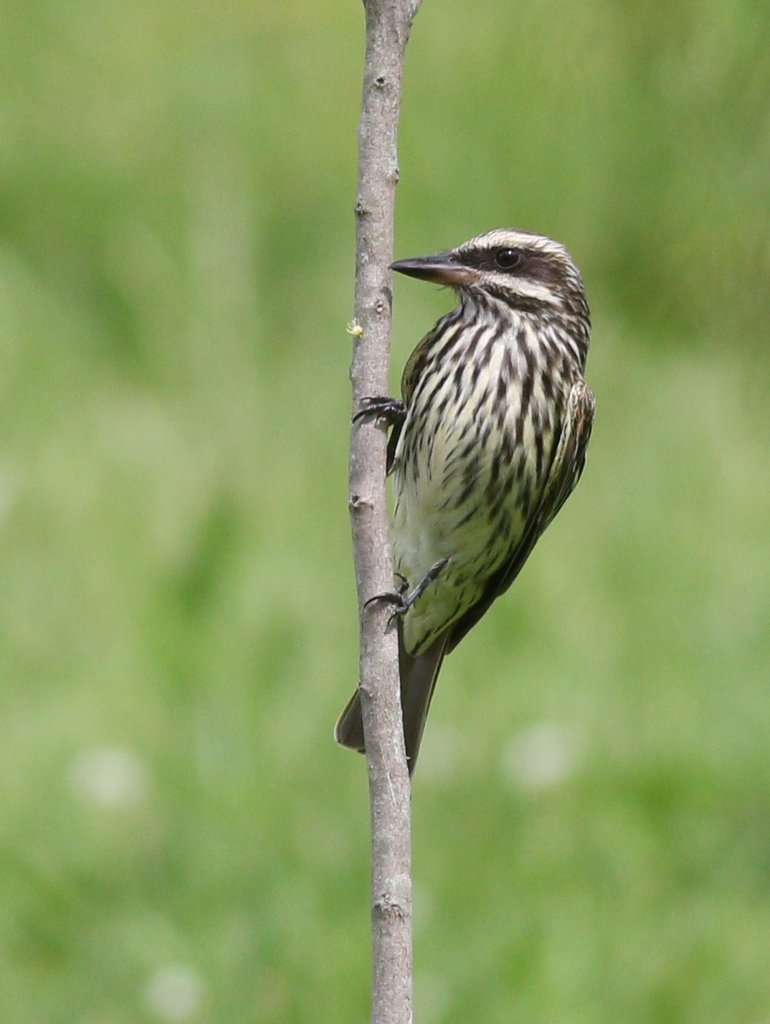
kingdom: Animalia
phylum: Chordata
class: Aves
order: Passeriformes
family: Tyrannidae
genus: Myiodynastes
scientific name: Myiodynastes maculatus
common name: Streaked flycatcher
